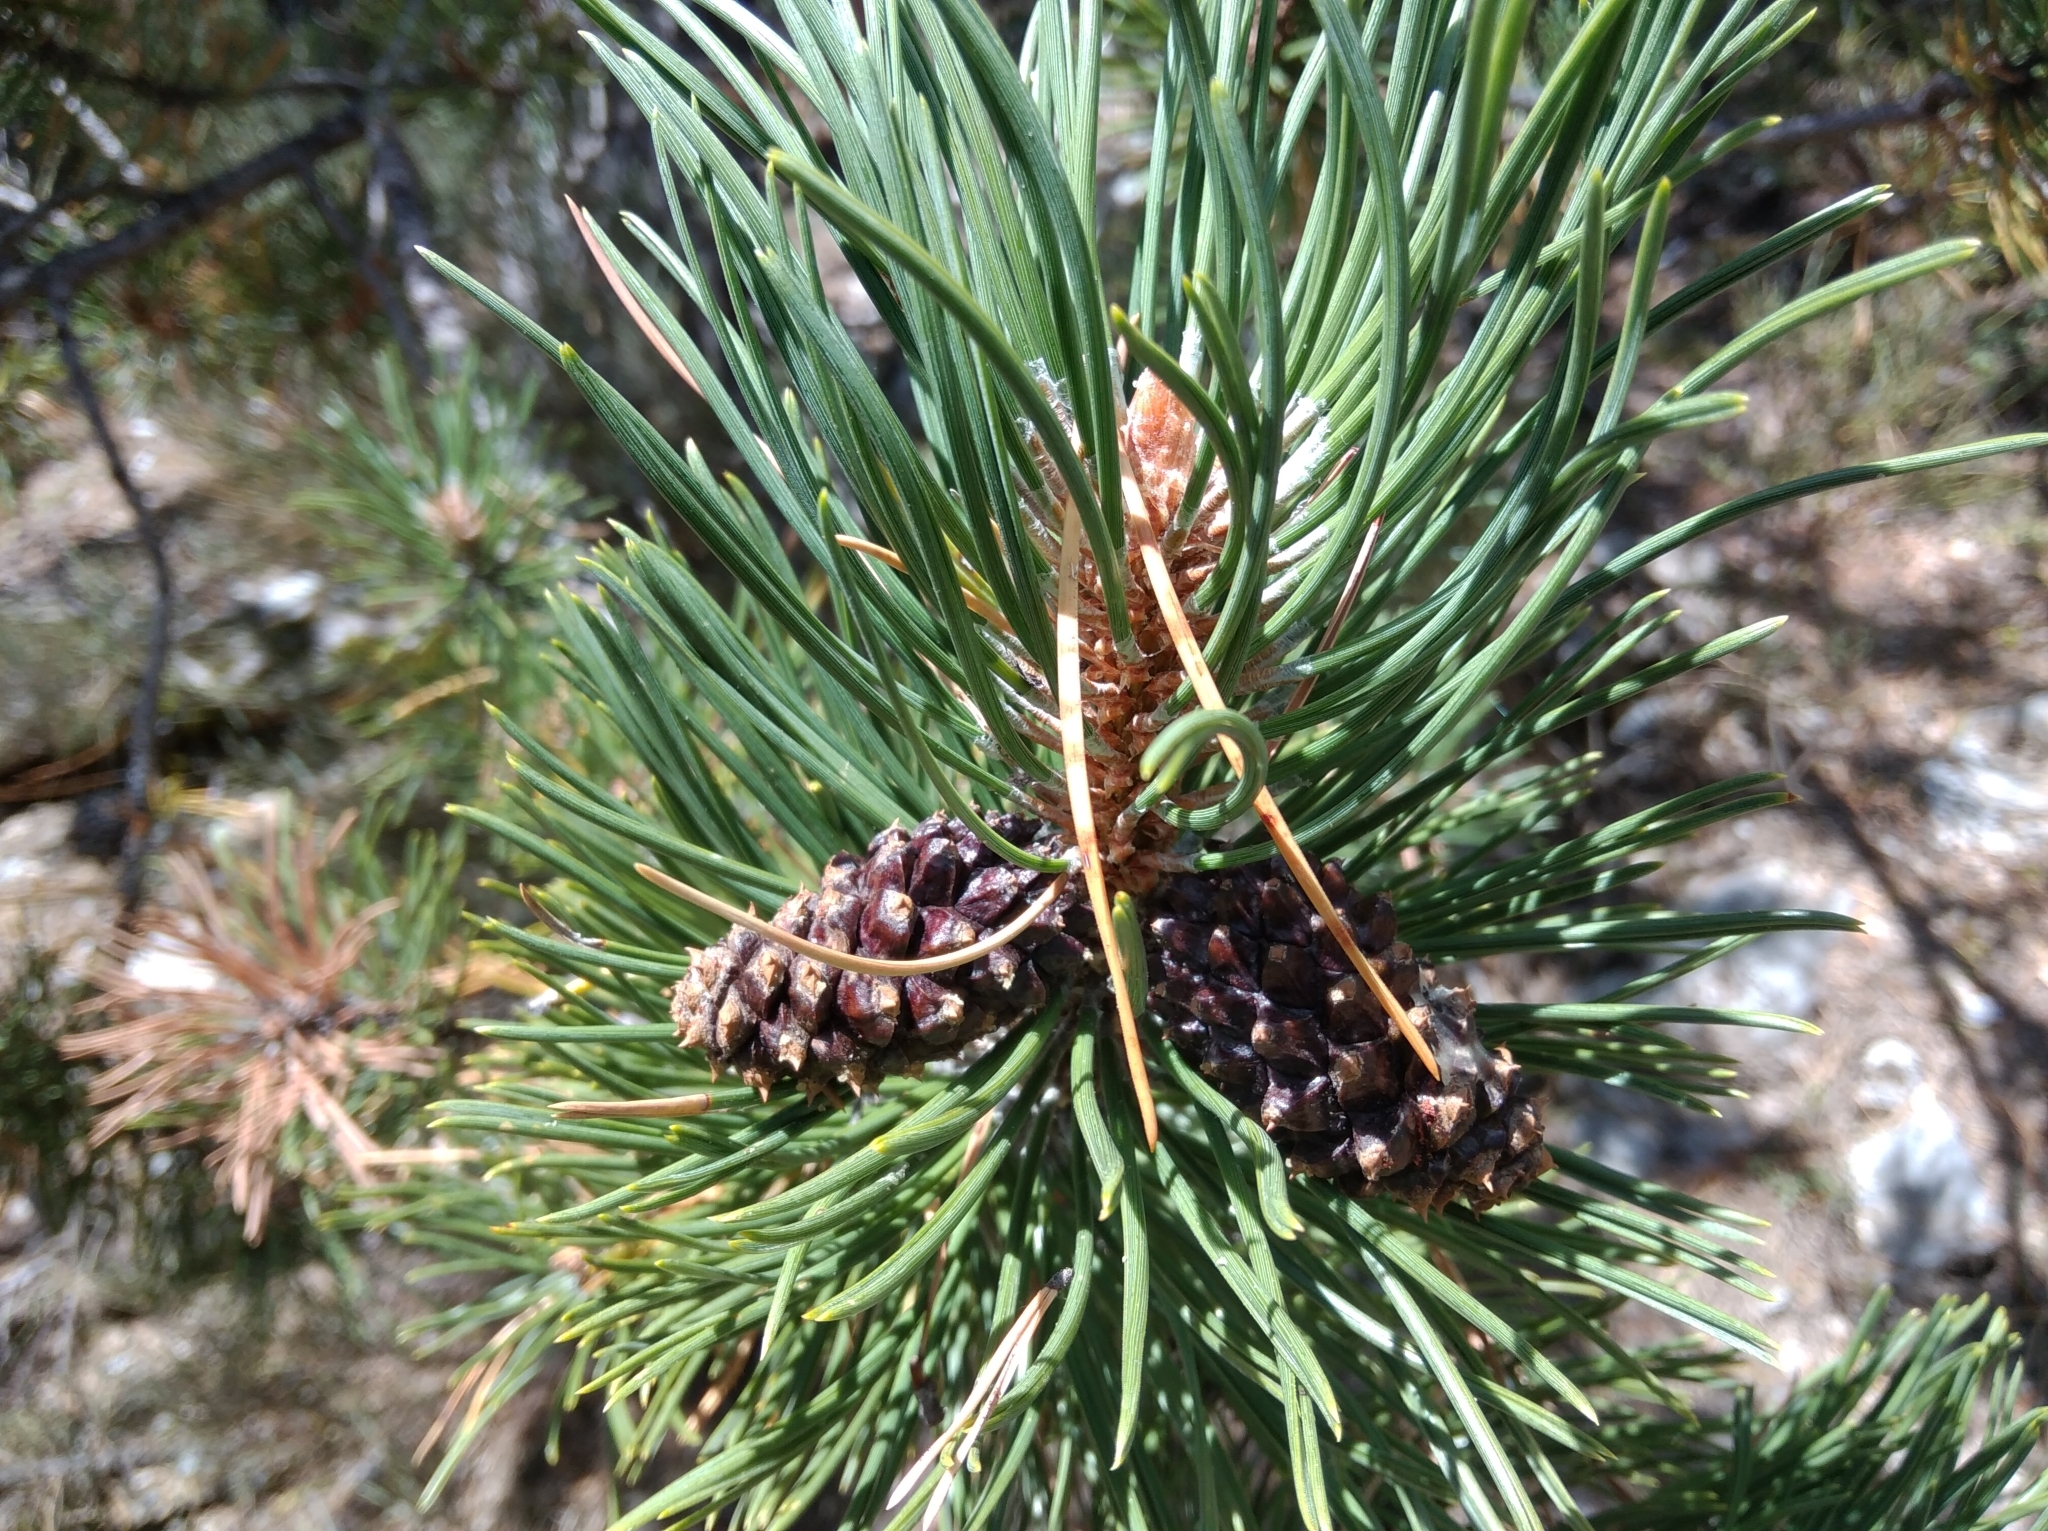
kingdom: Plantae
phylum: Tracheophyta
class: Pinopsida
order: Pinales
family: Pinaceae
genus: Pinus
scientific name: Pinus sylvestris
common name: Scots pine
